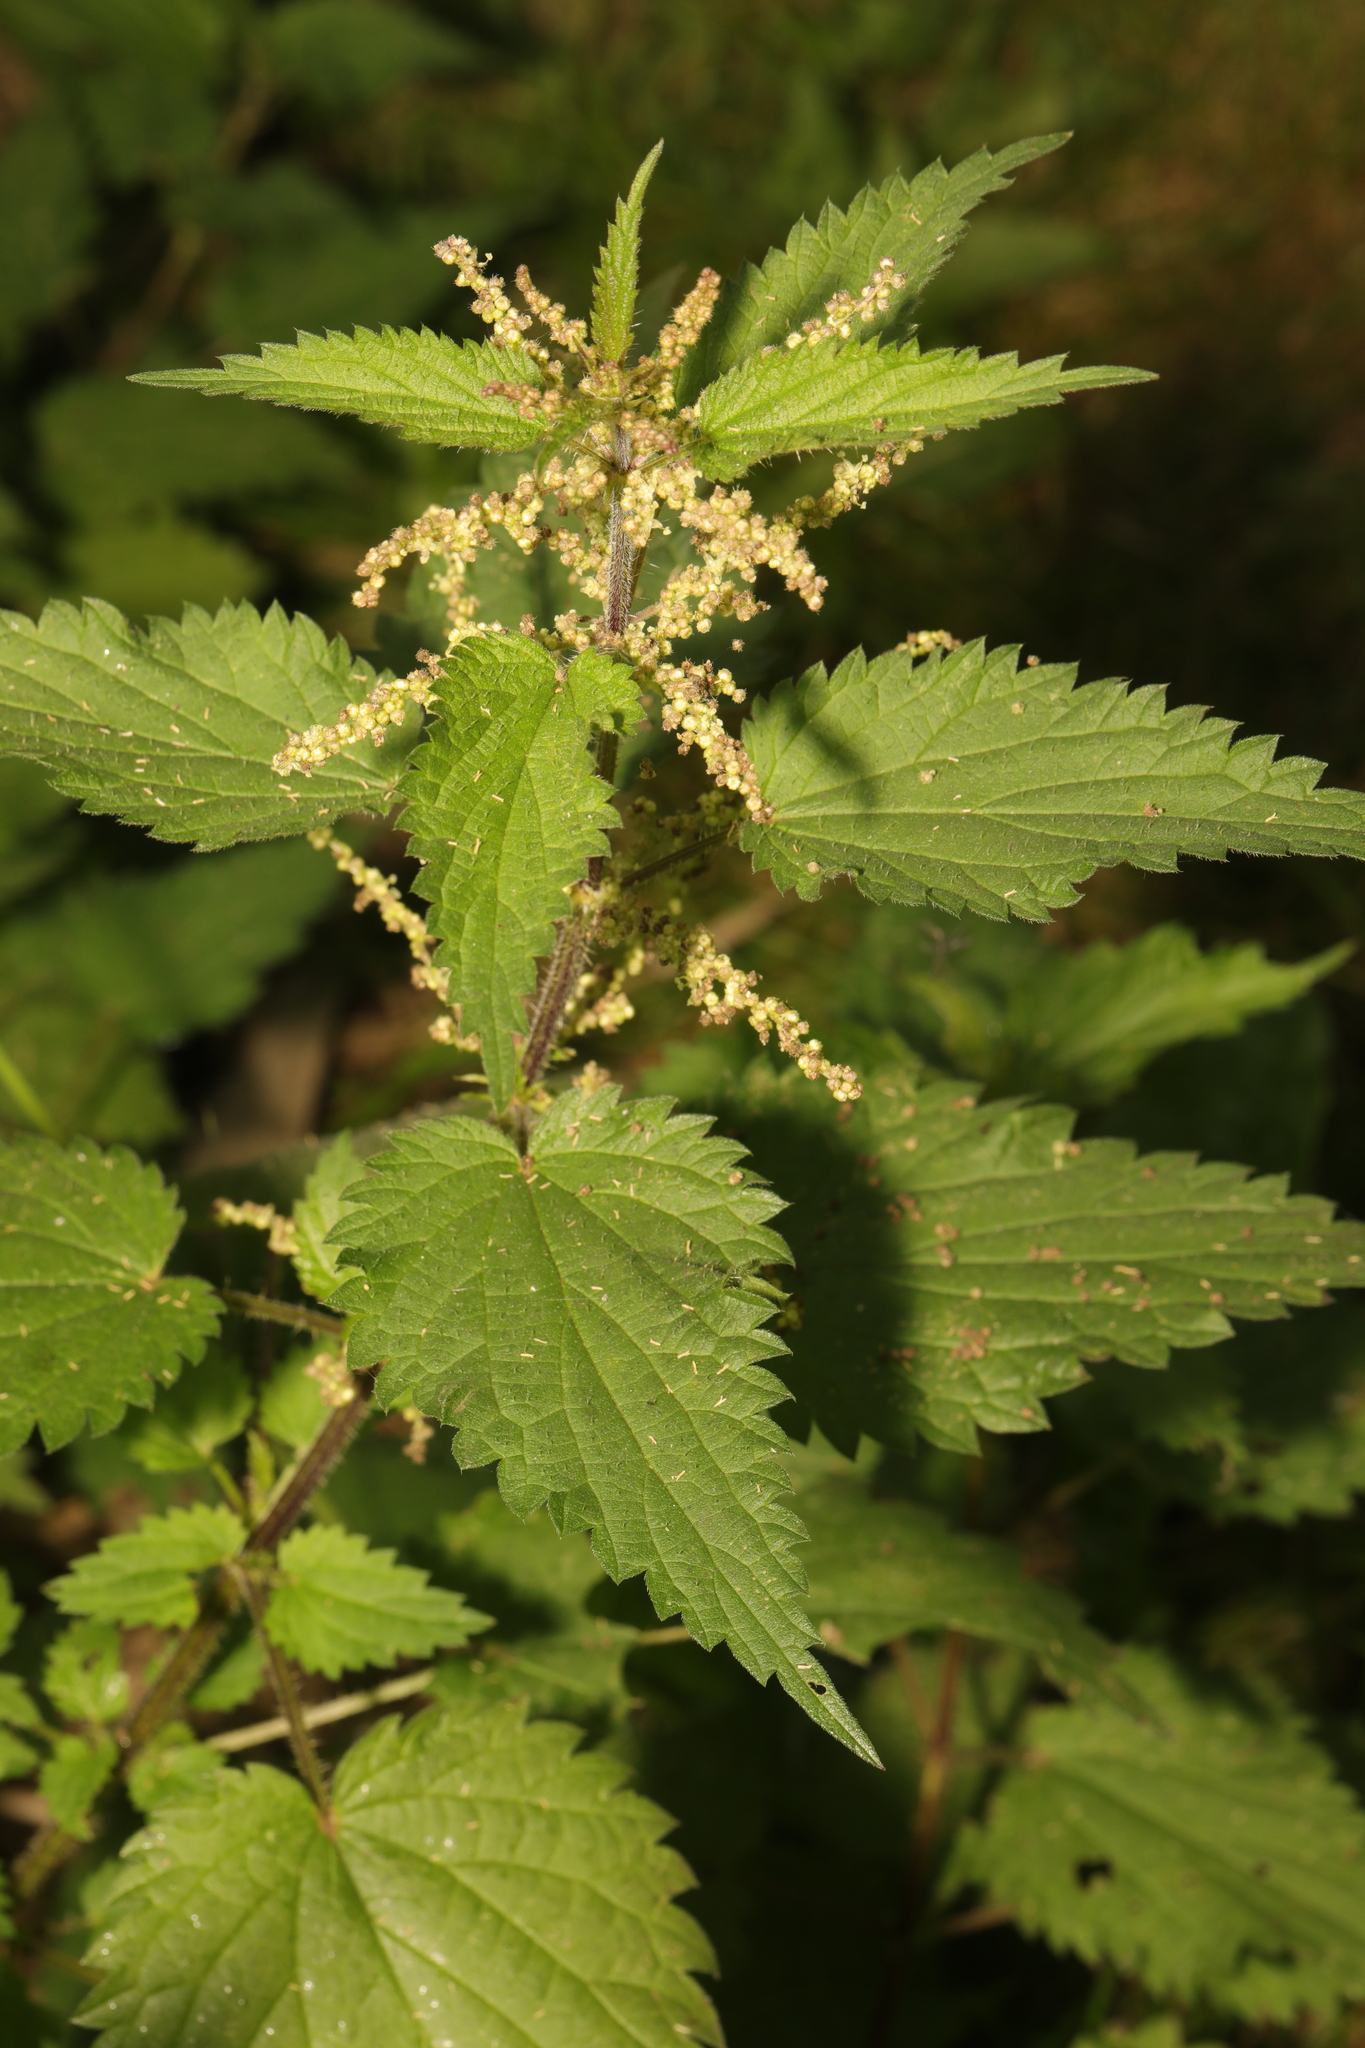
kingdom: Plantae
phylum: Tracheophyta
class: Magnoliopsida
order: Rosales
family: Urticaceae
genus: Urtica
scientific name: Urtica dioica
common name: Common nettle
